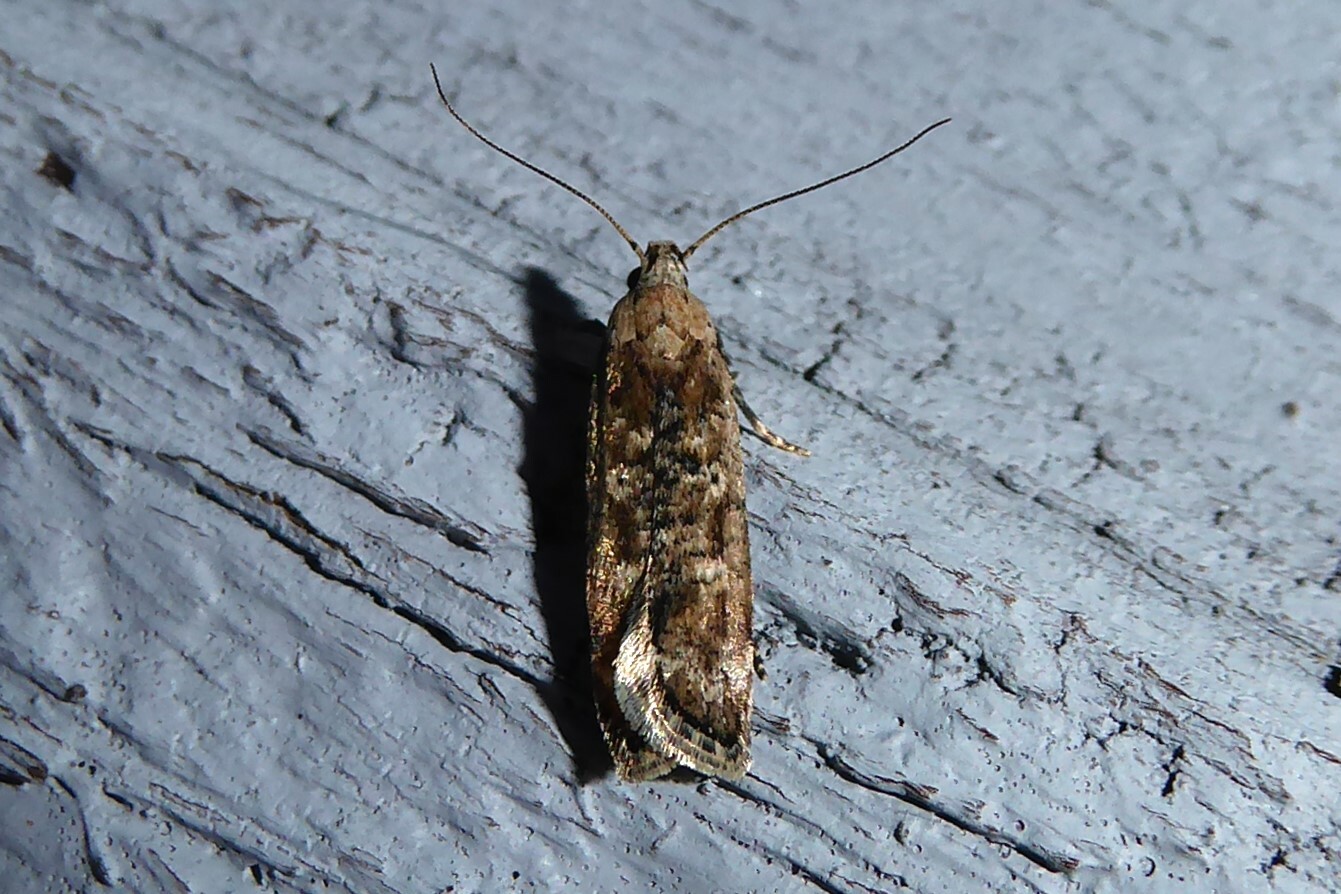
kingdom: Animalia
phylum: Arthropoda
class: Insecta
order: Lepidoptera
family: Gelechiidae
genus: Anisoplaca
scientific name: Anisoplaca achyrota
